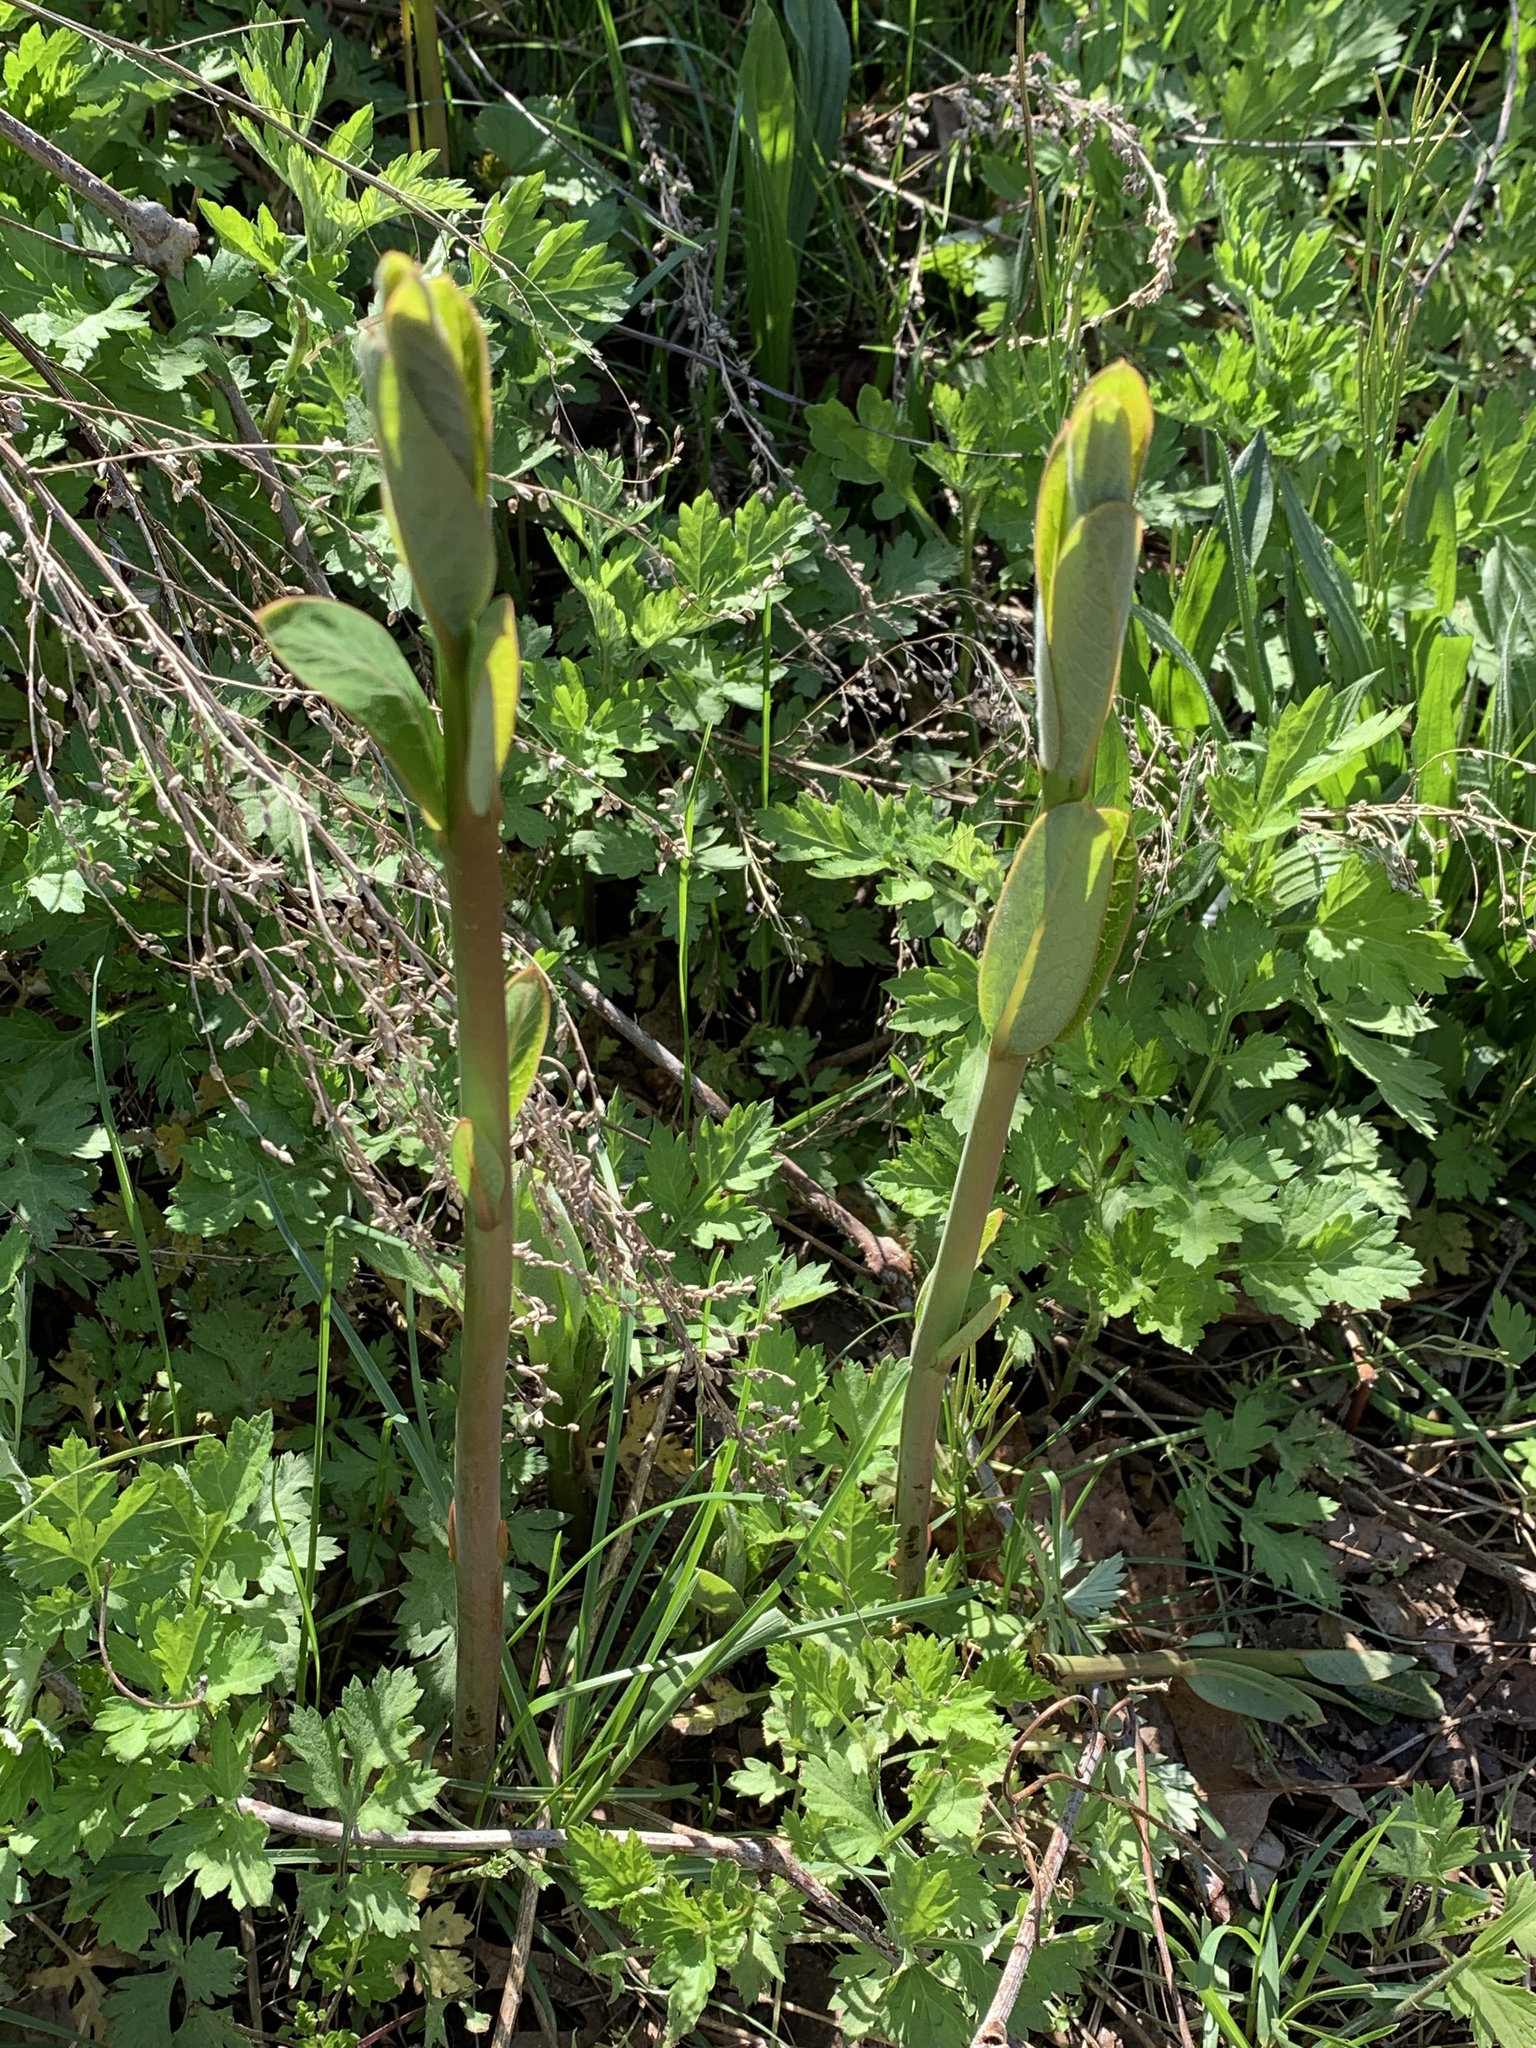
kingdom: Plantae
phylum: Tracheophyta
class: Magnoliopsida
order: Gentianales
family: Apocynaceae
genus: Apocynum
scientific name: Apocynum cannabinum
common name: Hemp dogbane
